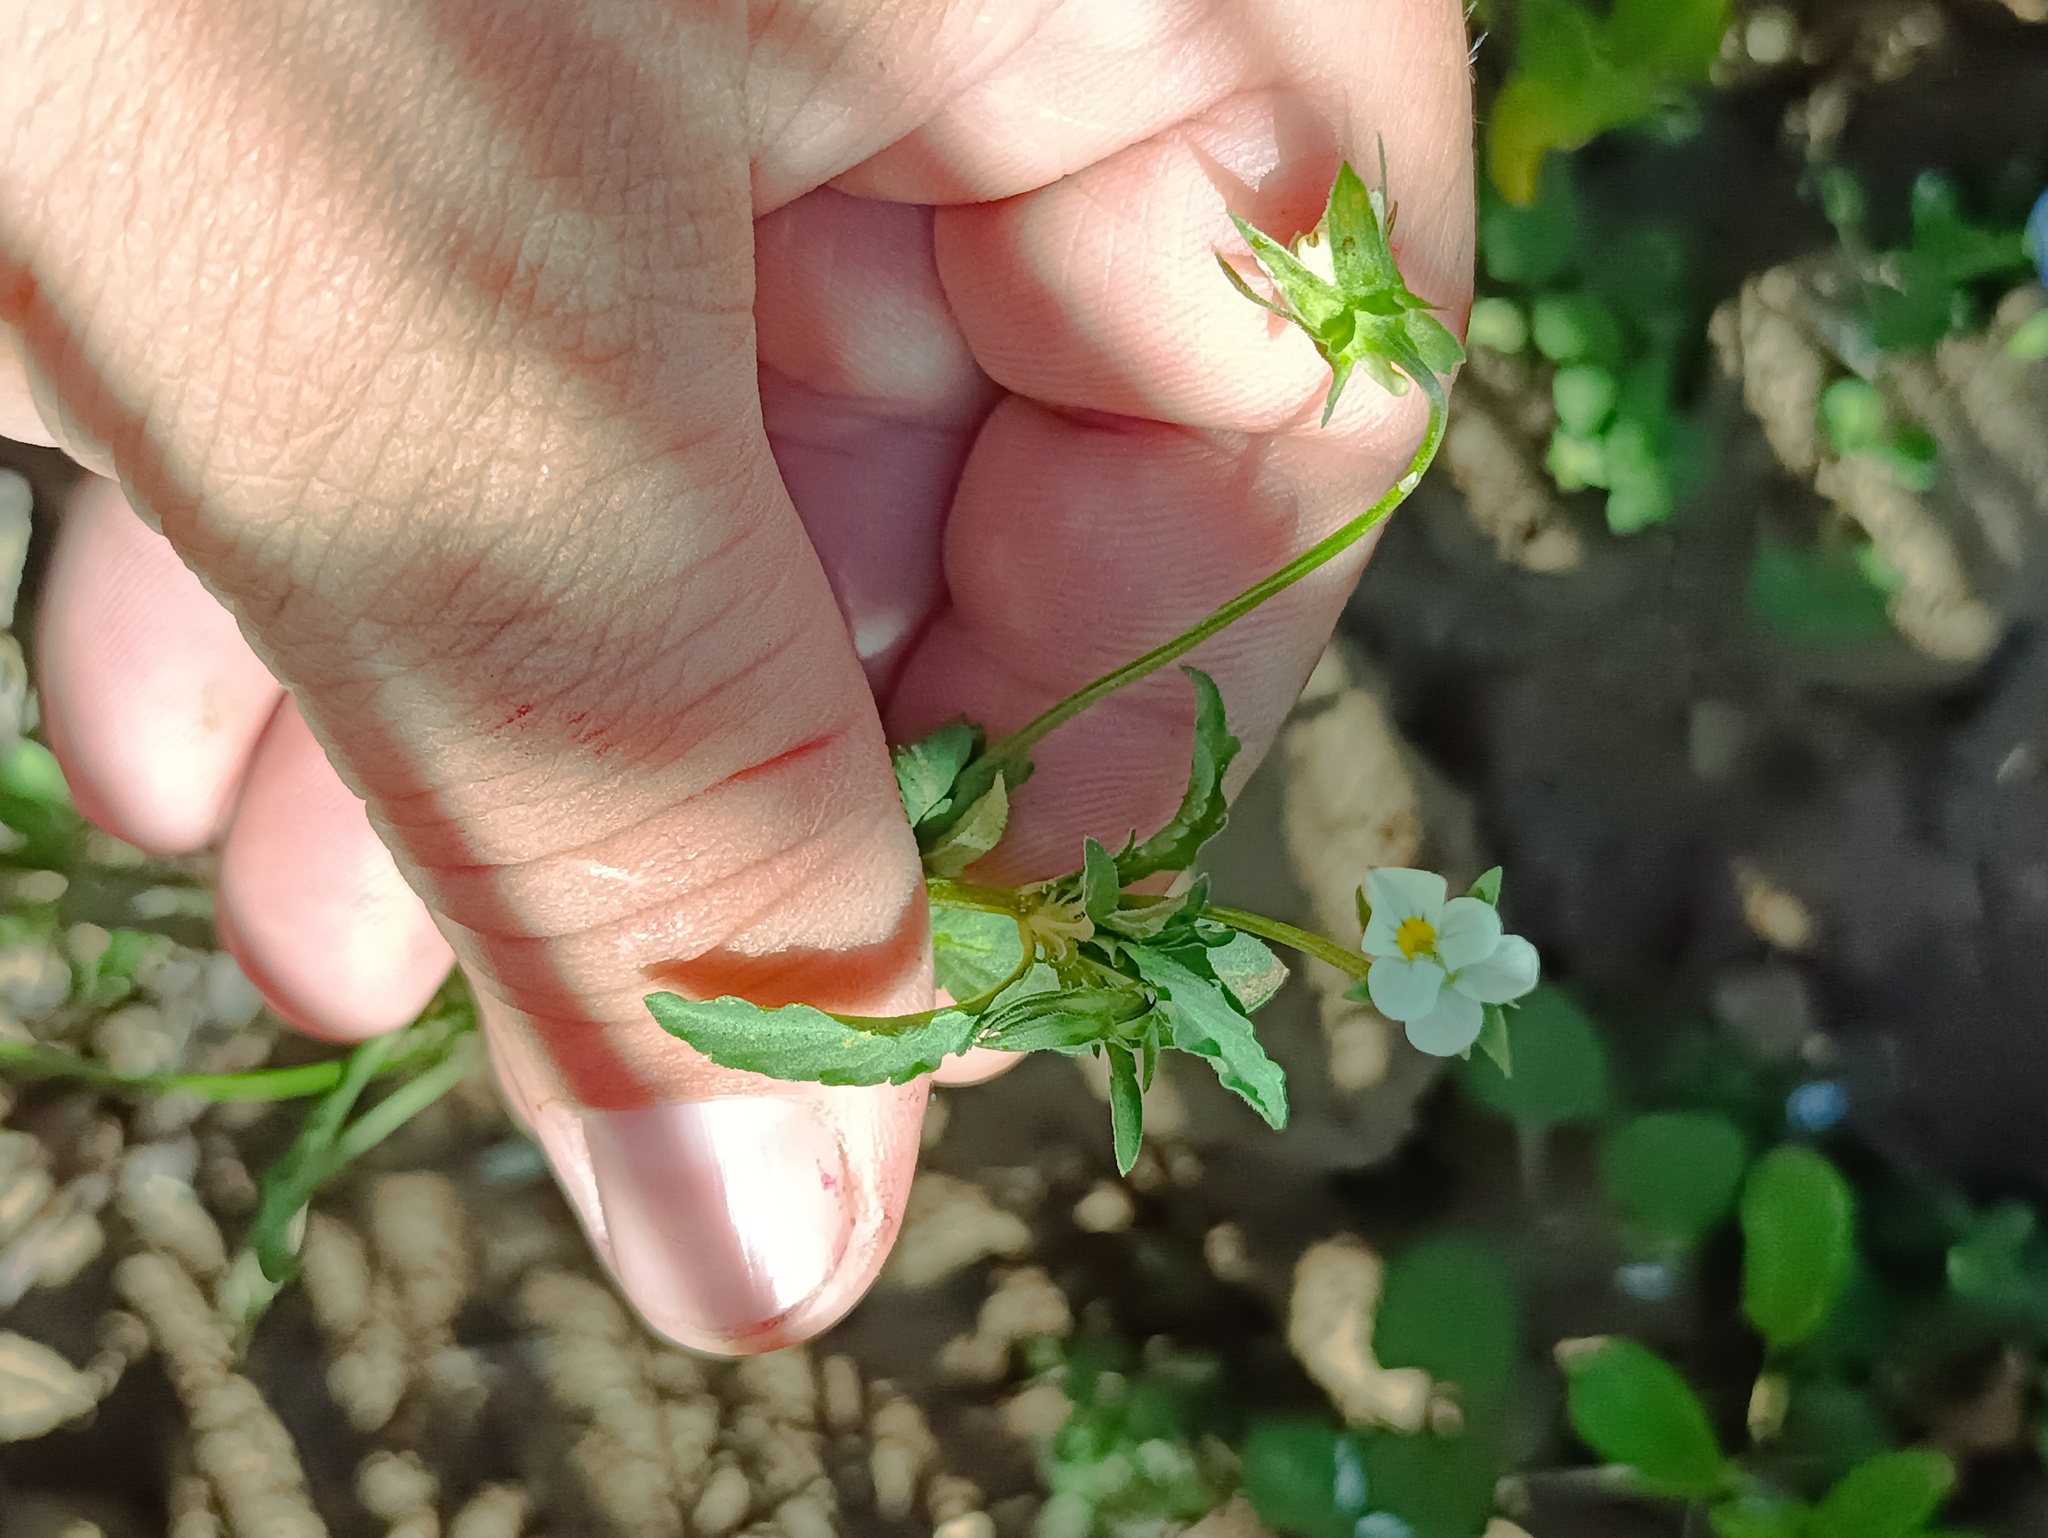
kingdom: Plantae
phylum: Tracheophyta
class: Magnoliopsida
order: Malpighiales
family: Violaceae
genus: Viola
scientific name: Viola arvensis
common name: Field pansy
